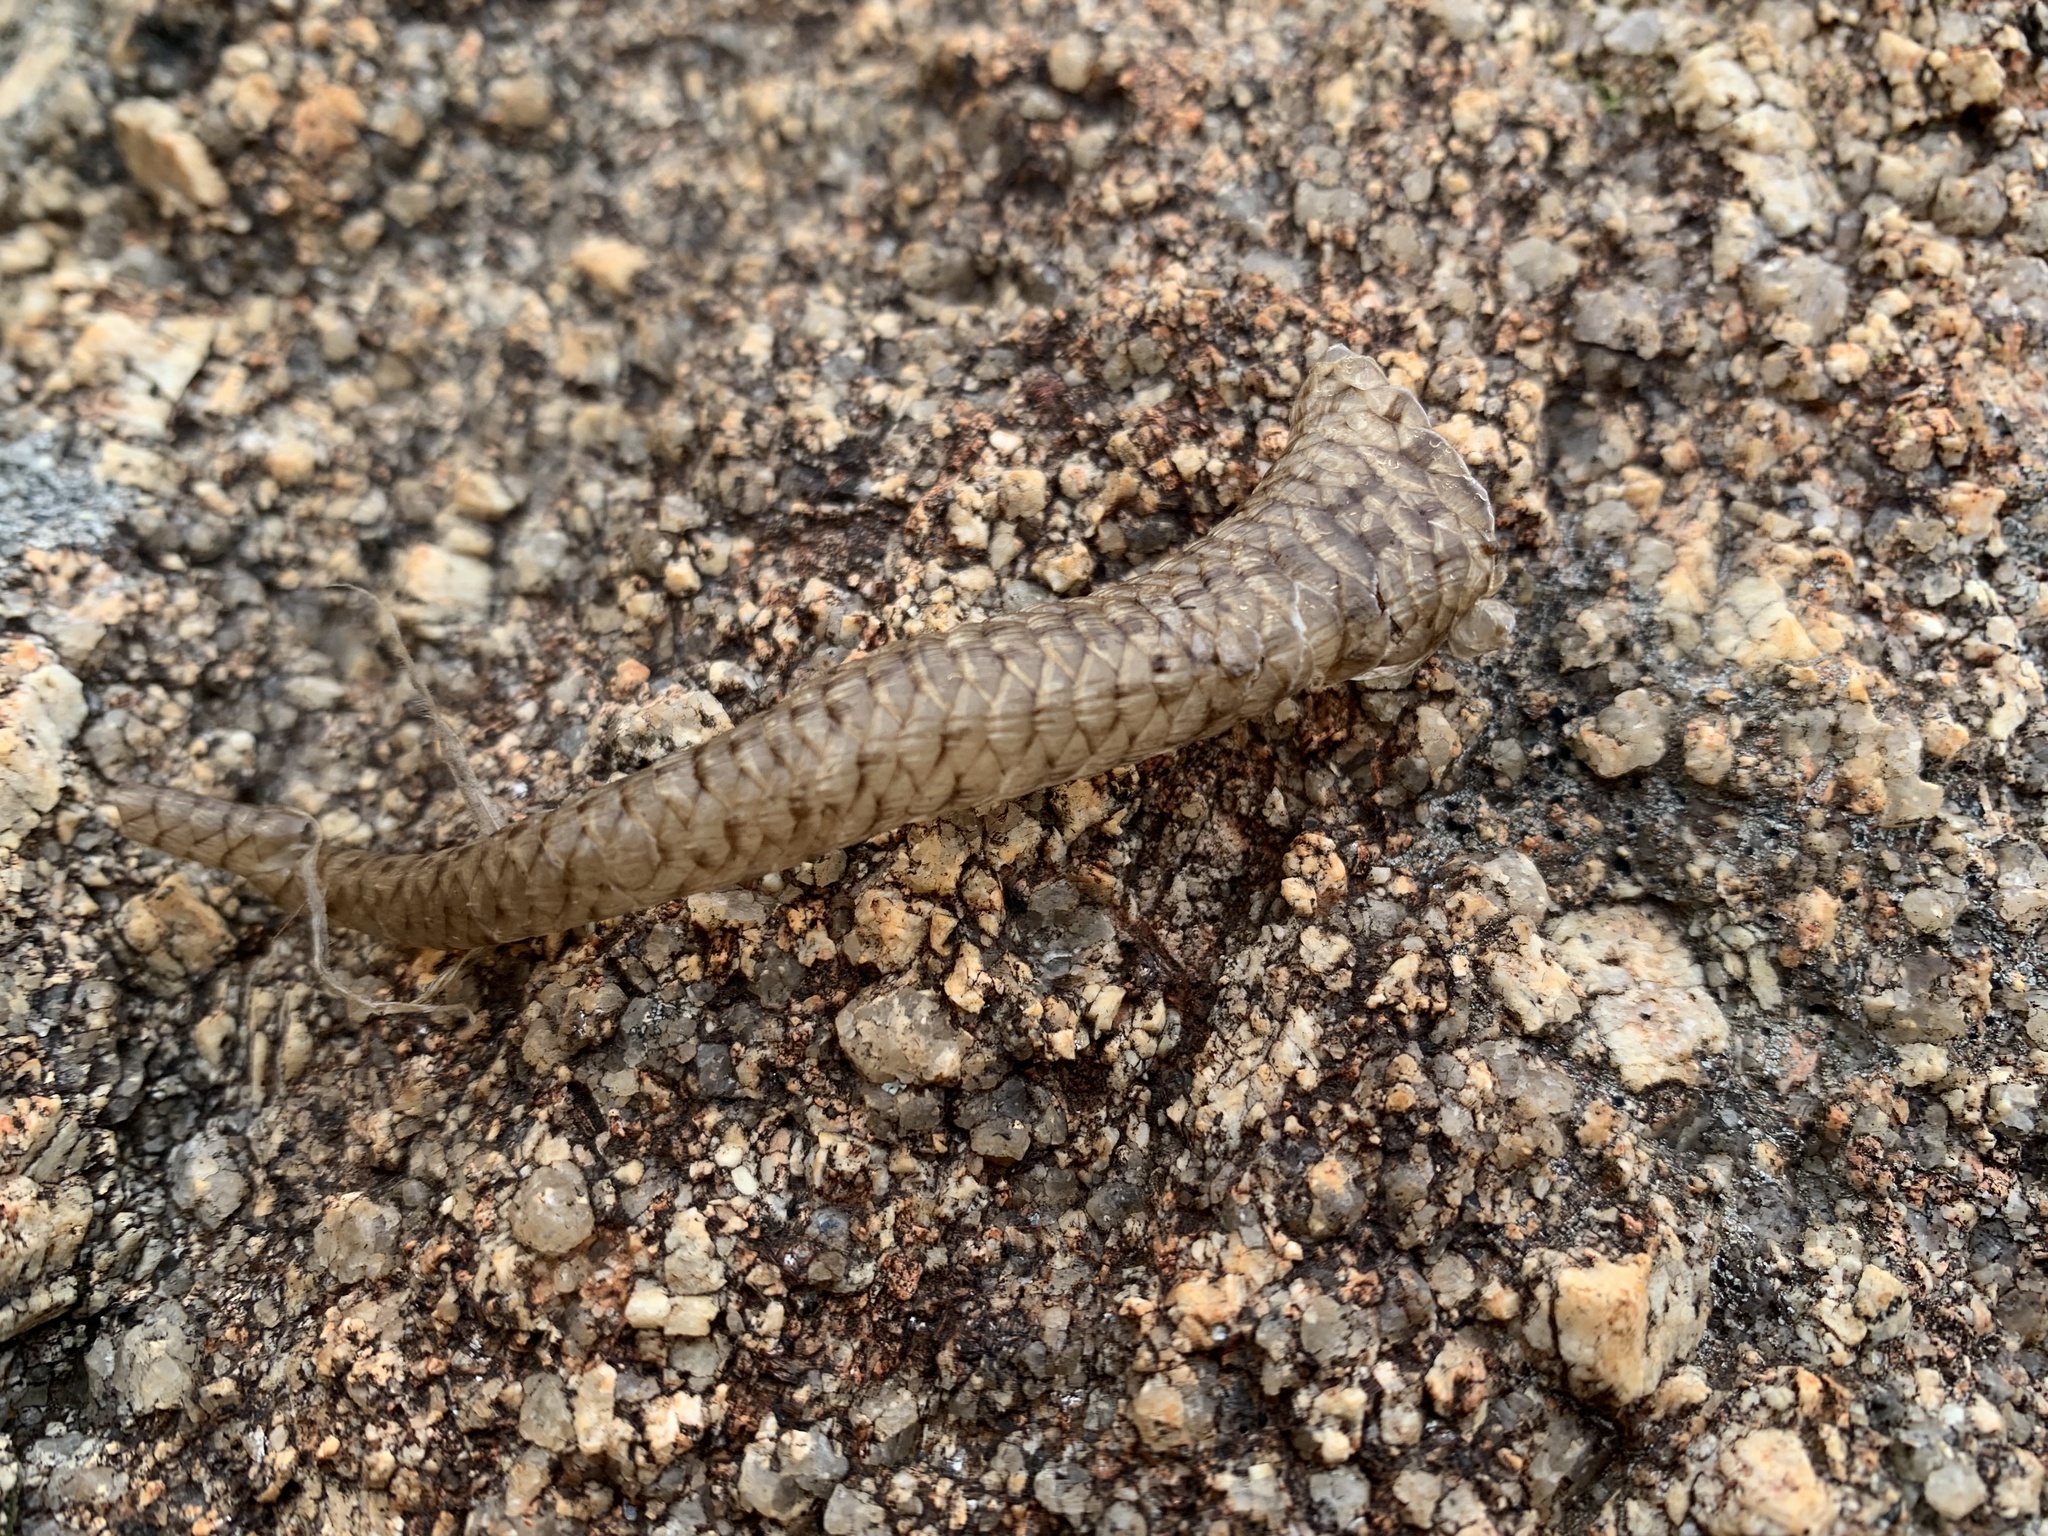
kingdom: Animalia
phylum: Chordata
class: Squamata
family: Scincidae
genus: Egernia
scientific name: Egernia striolata
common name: Tree skink
